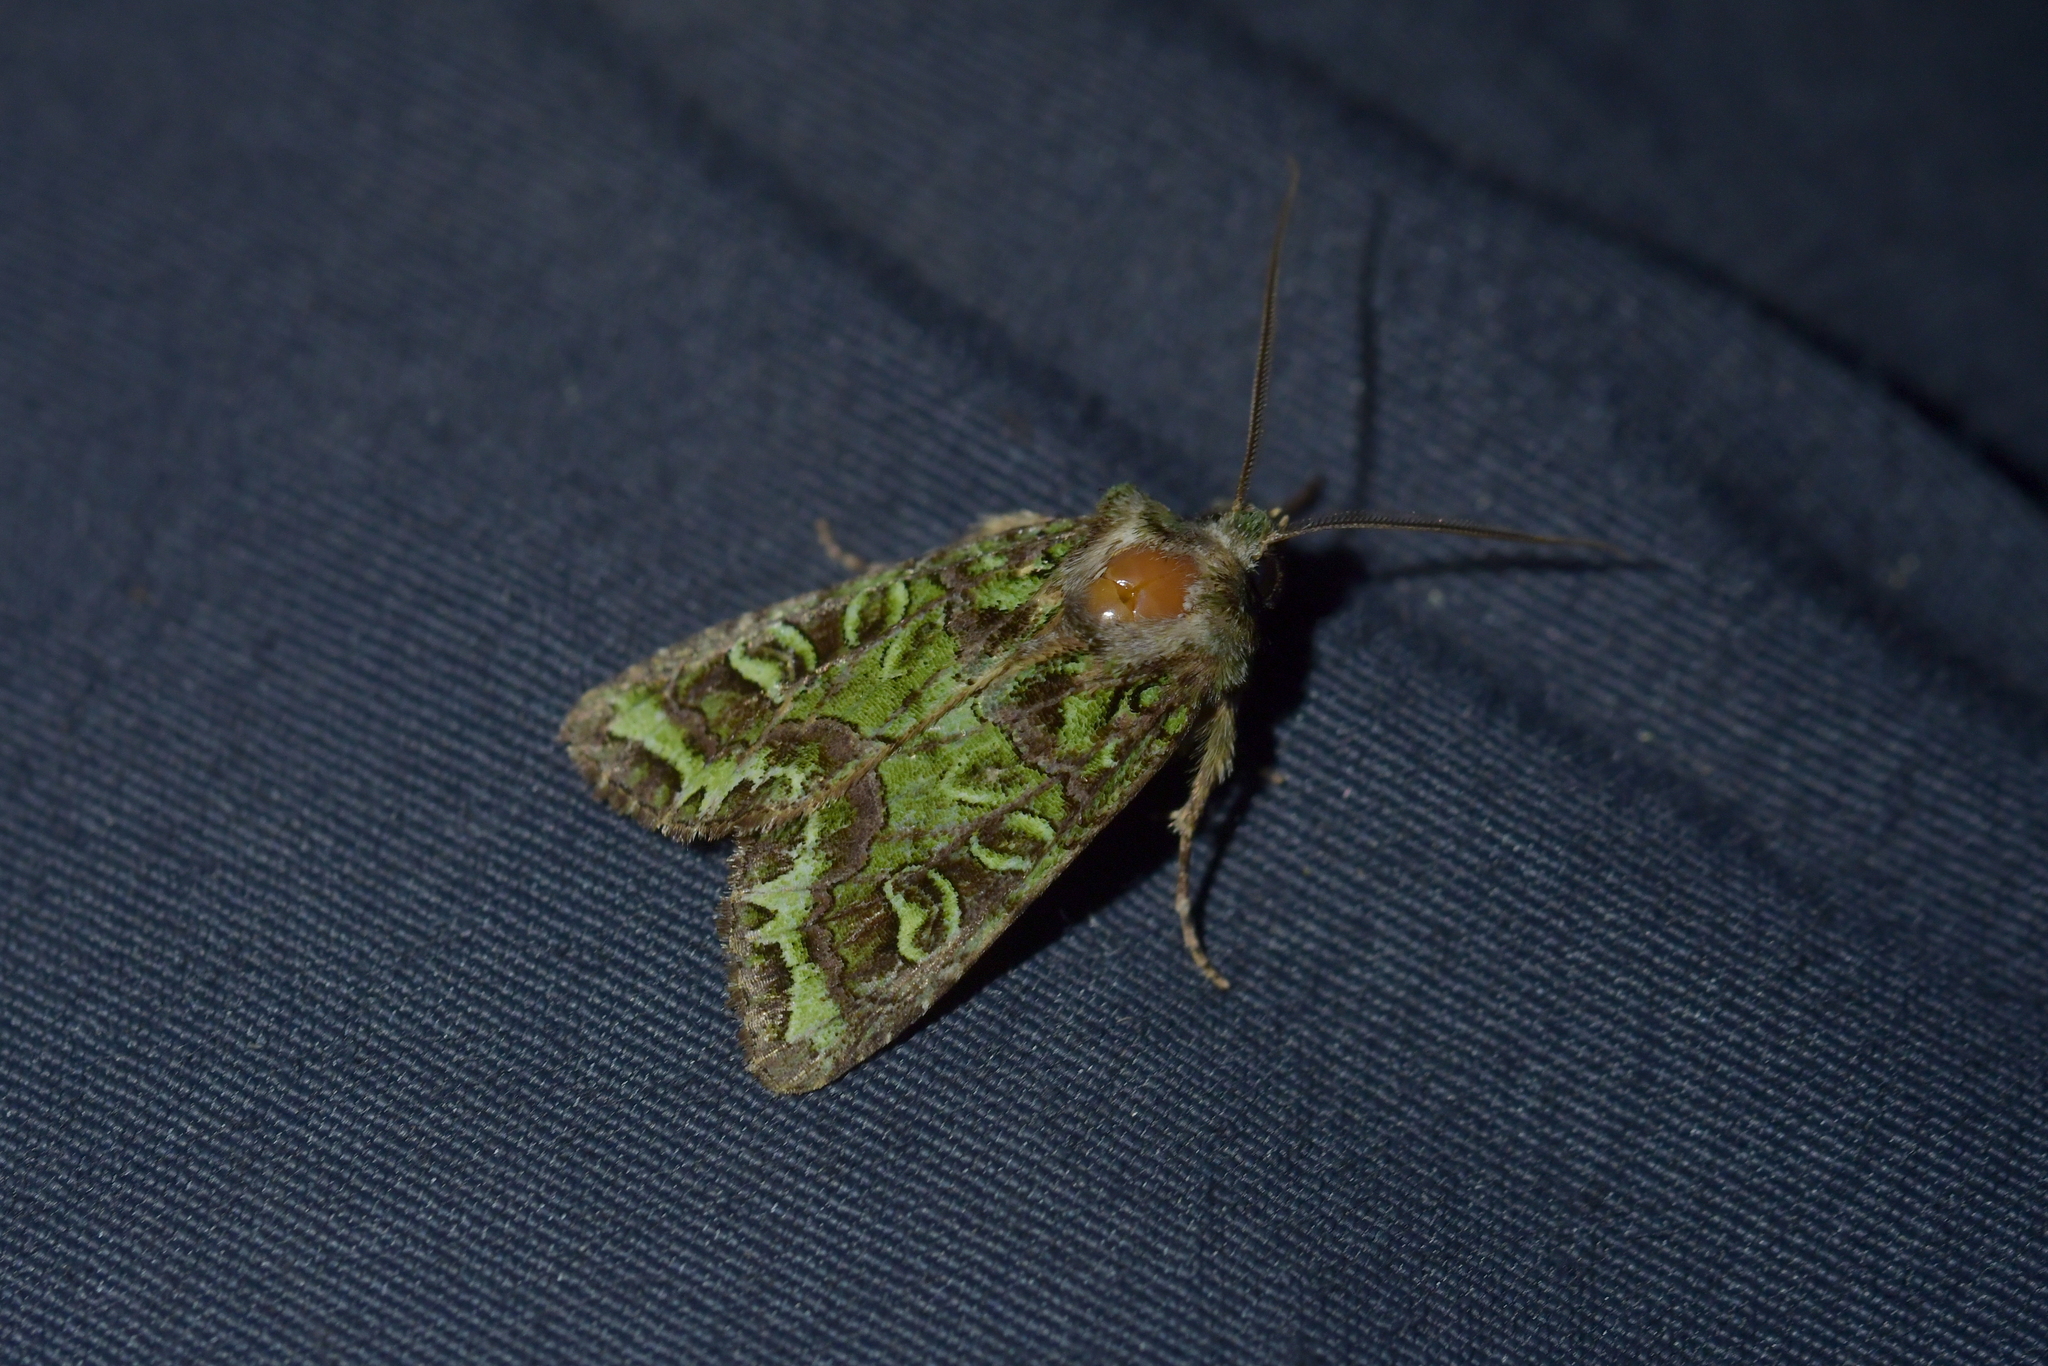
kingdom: Animalia
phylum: Arthropoda
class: Insecta
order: Lepidoptera
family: Noctuidae
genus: Ichneutica
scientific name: Ichneutica chlorodonta
